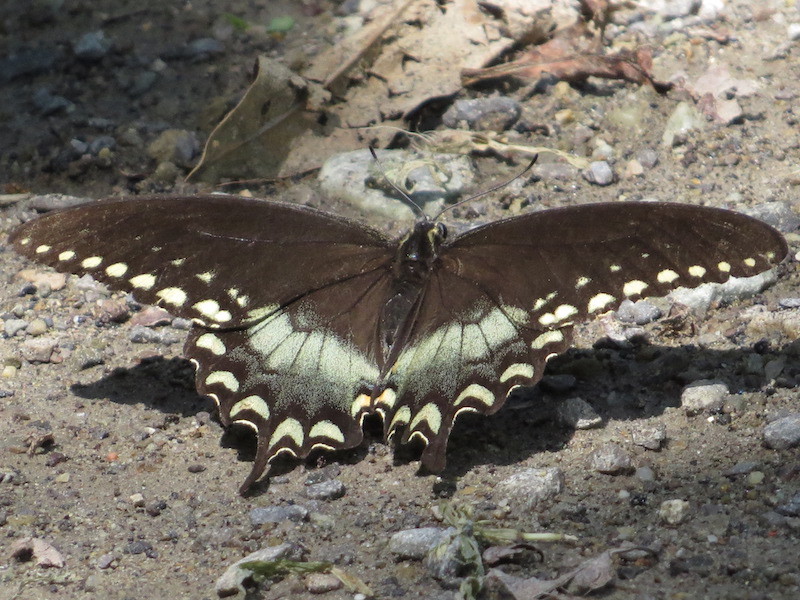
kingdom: Animalia
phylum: Arthropoda
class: Insecta
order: Lepidoptera
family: Papilionidae
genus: Papilio
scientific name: Papilio troilus
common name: Spicebush swallowtail
